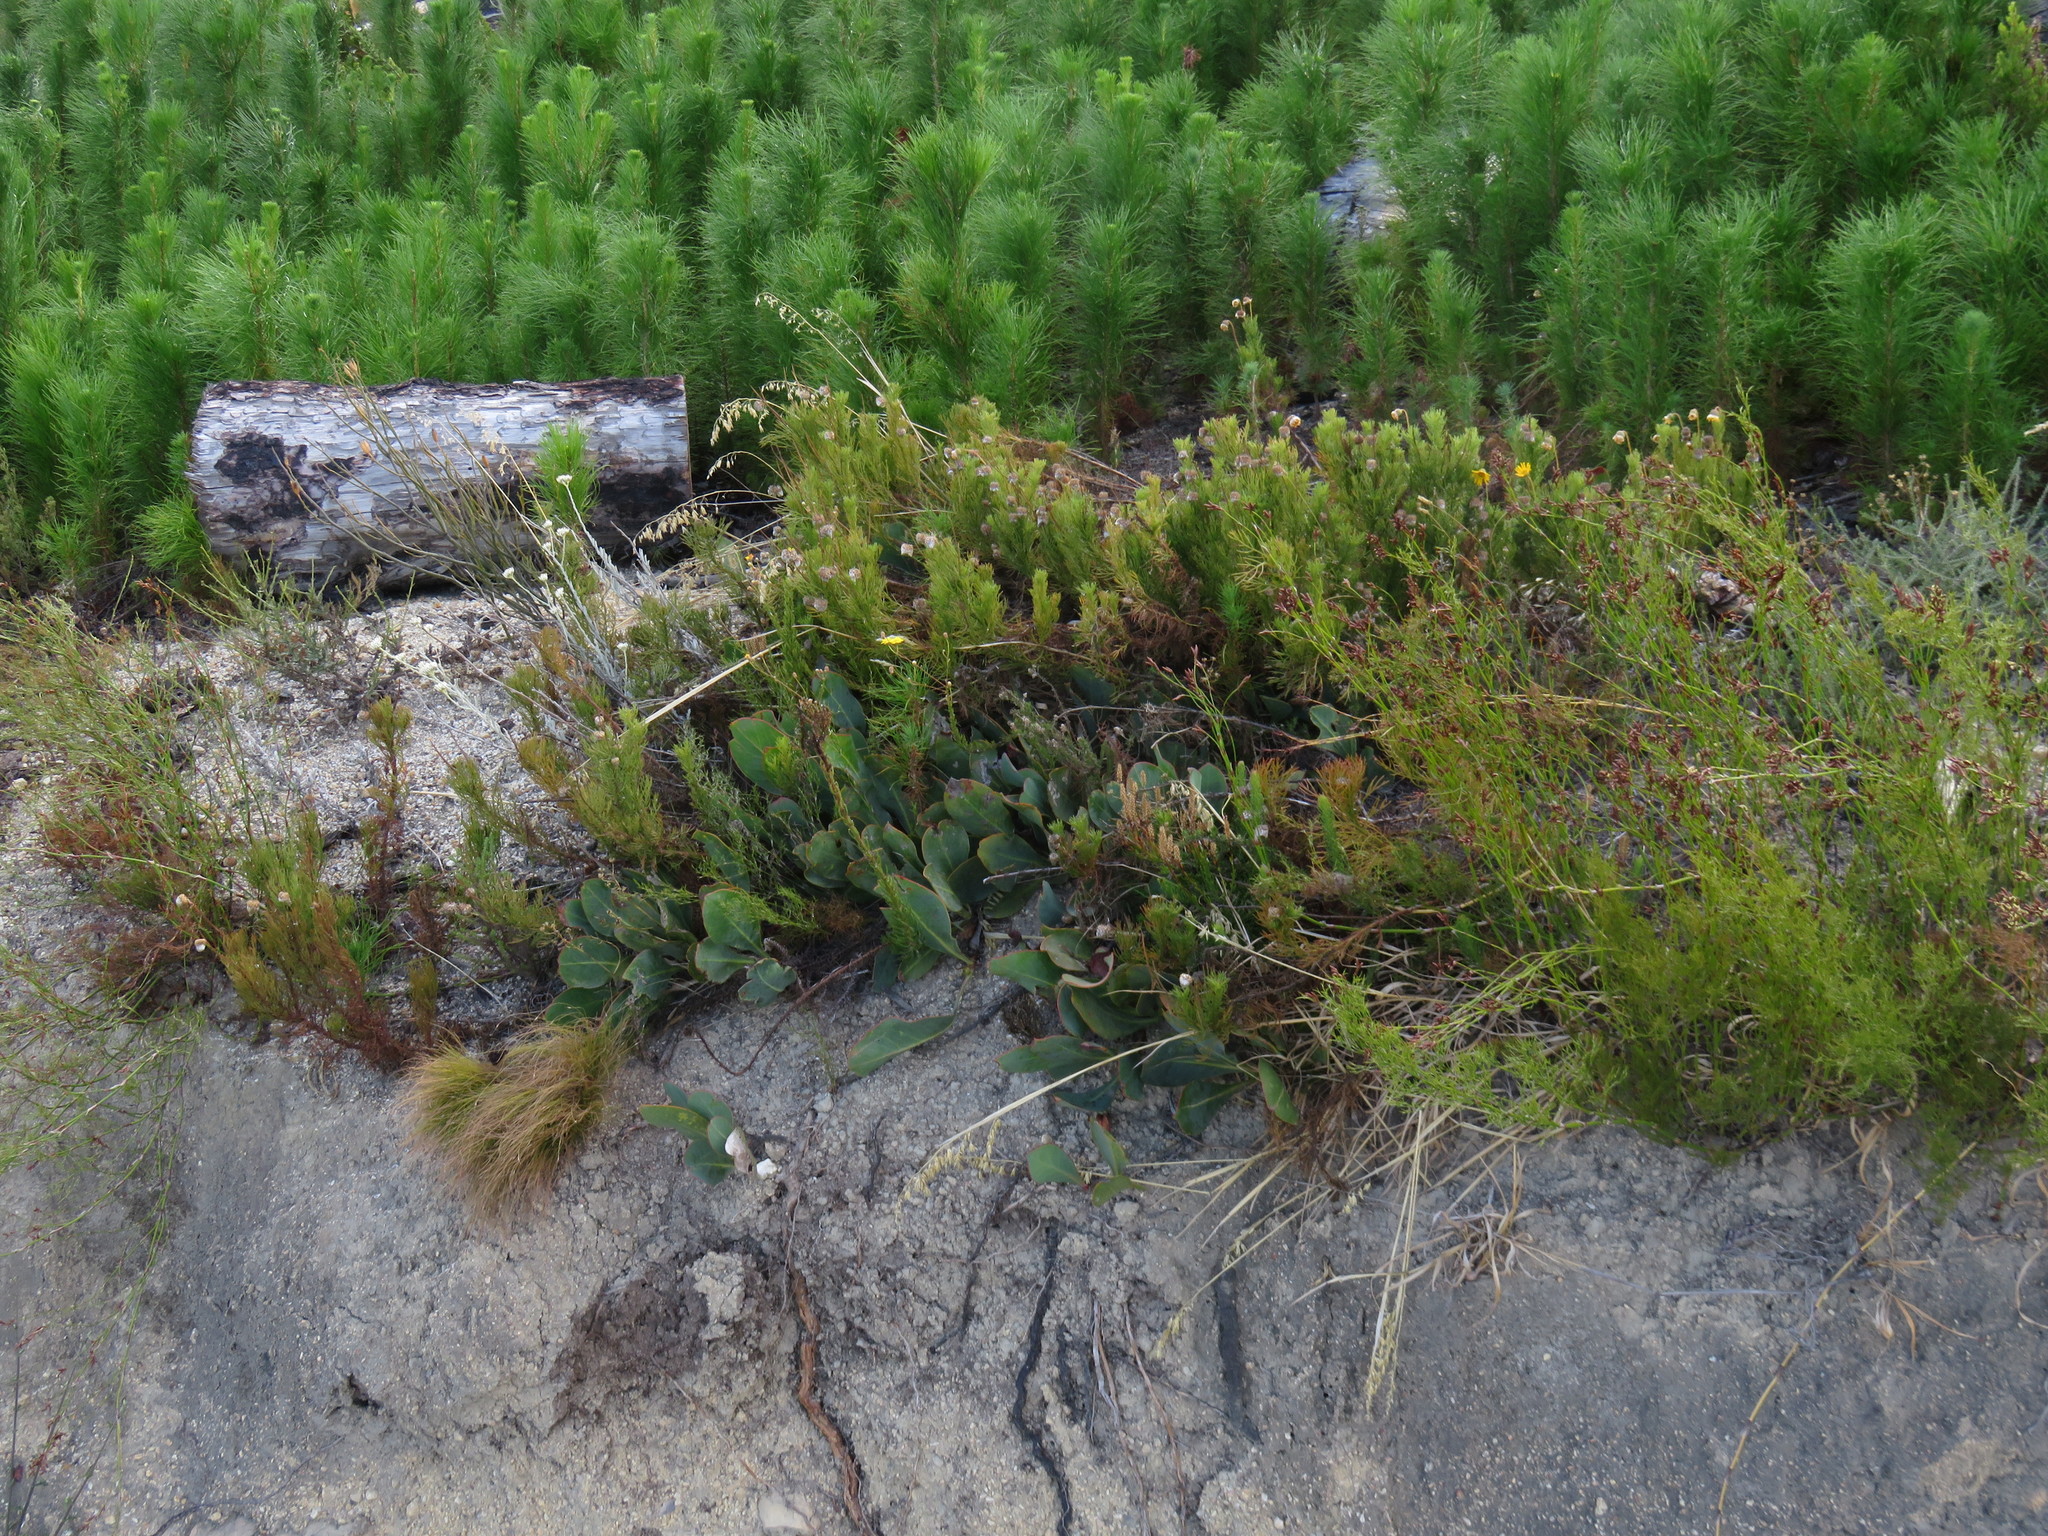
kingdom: Plantae
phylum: Tracheophyta
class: Magnoliopsida
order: Proteales
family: Proteaceae
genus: Protea
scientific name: Protea acaulos
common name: Common ground sugarbush
